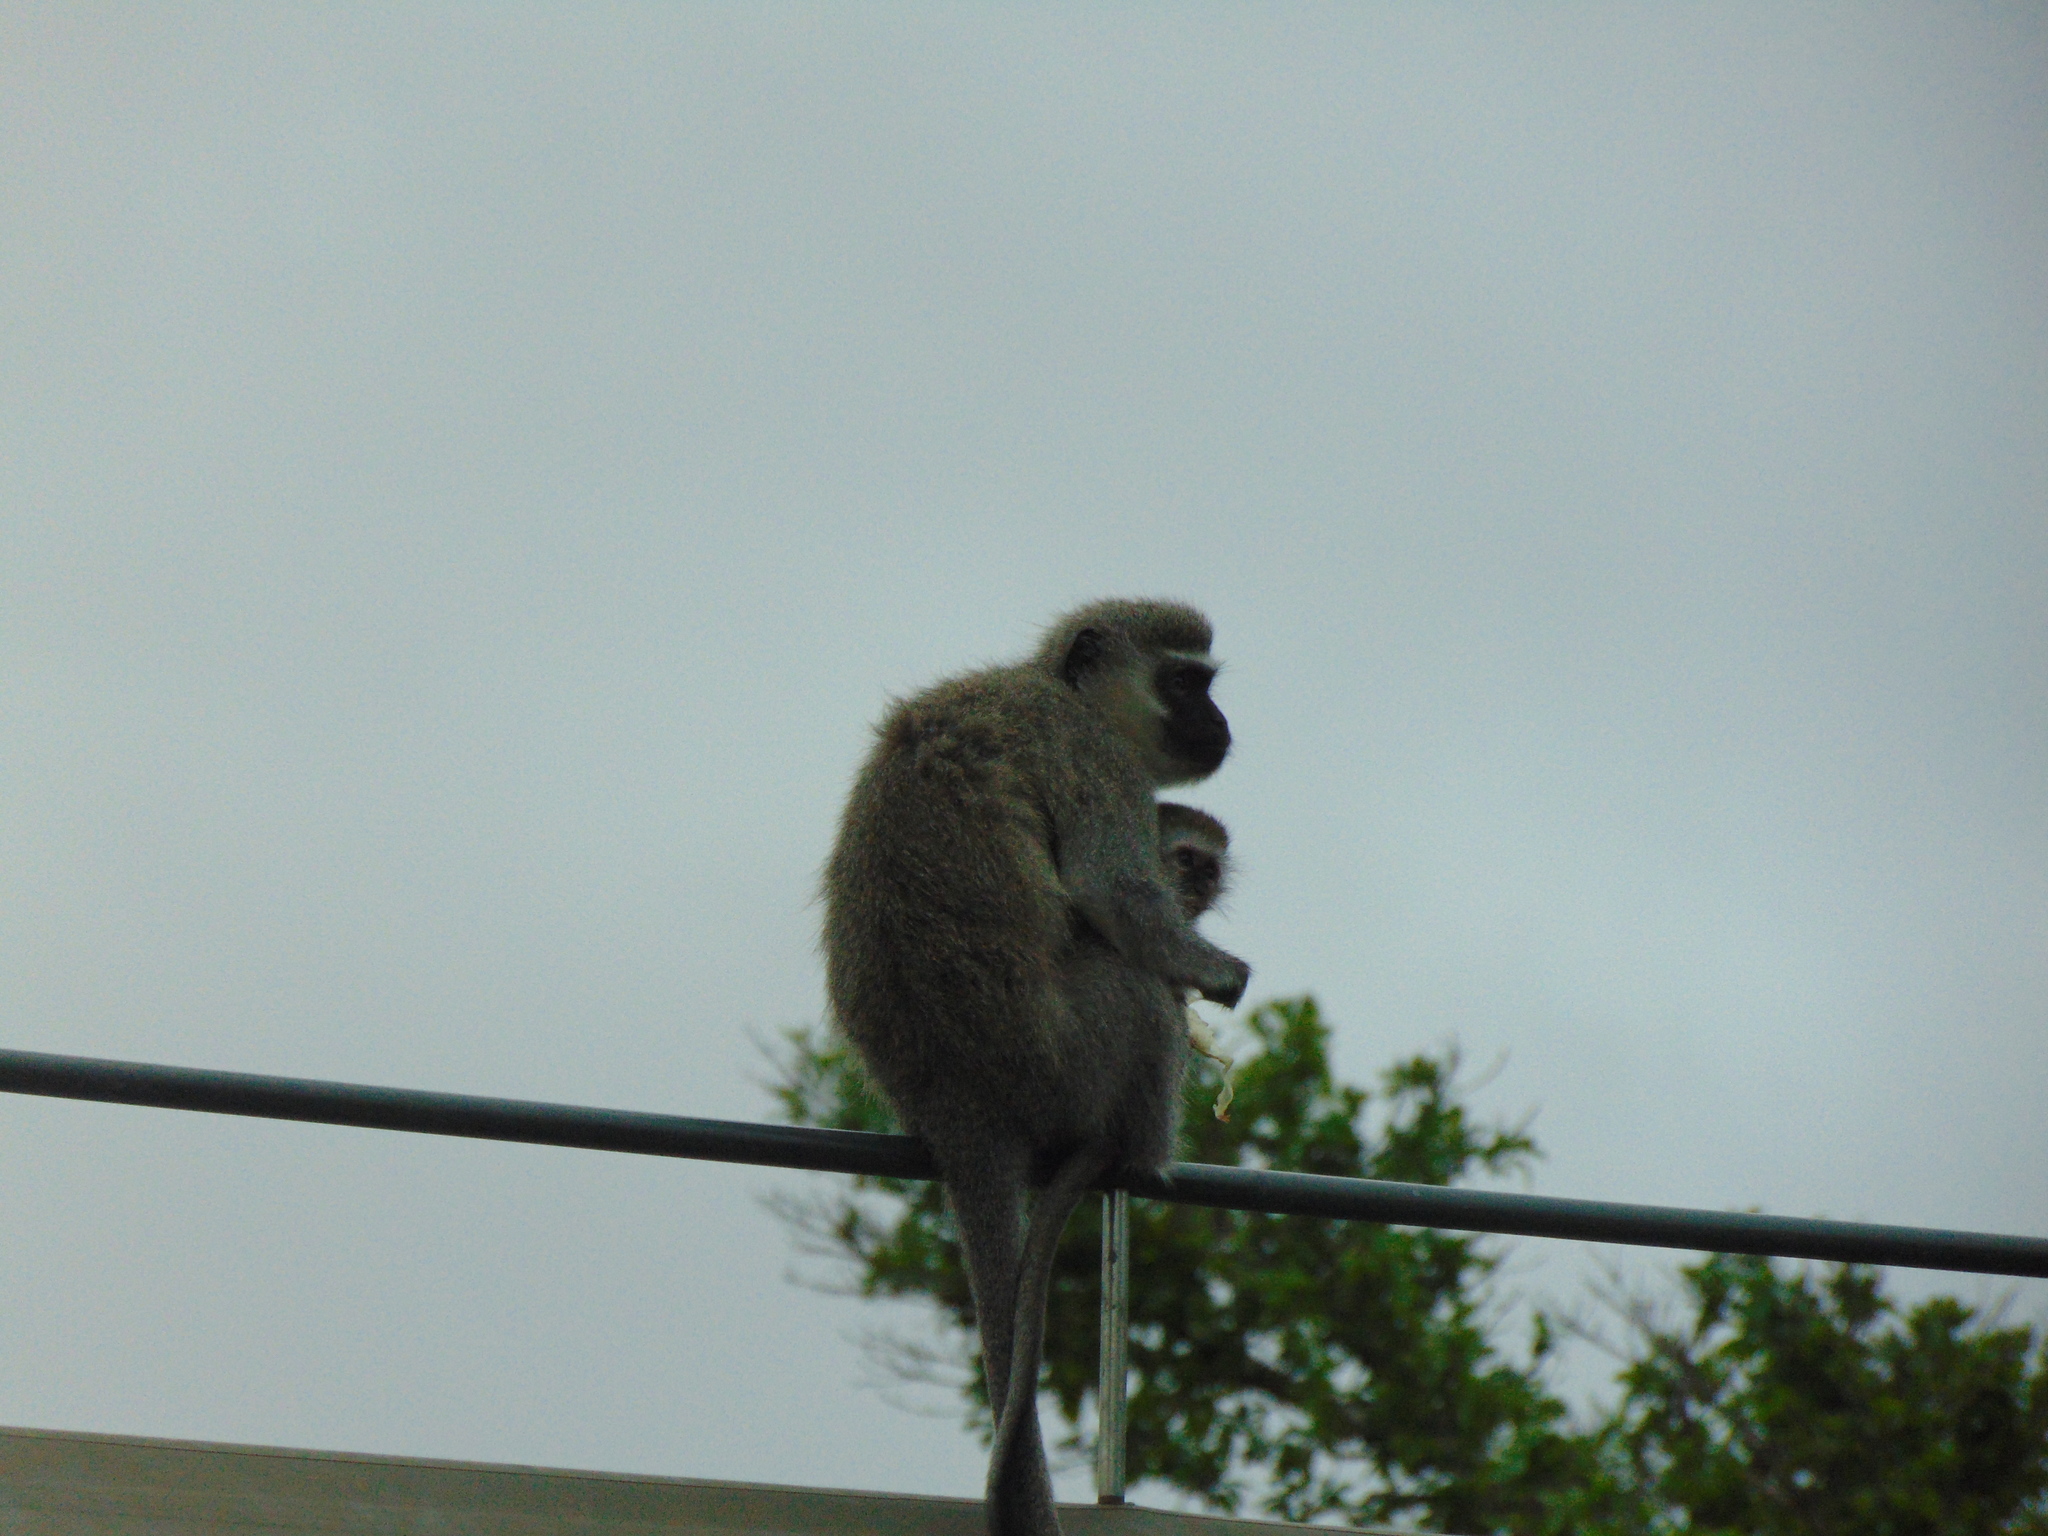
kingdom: Animalia
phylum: Chordata
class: Mammalia
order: Primates
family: Cercopithecidae
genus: Chlorocebus
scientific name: Chlorocebus pygerythrus
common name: Vervet monkey
